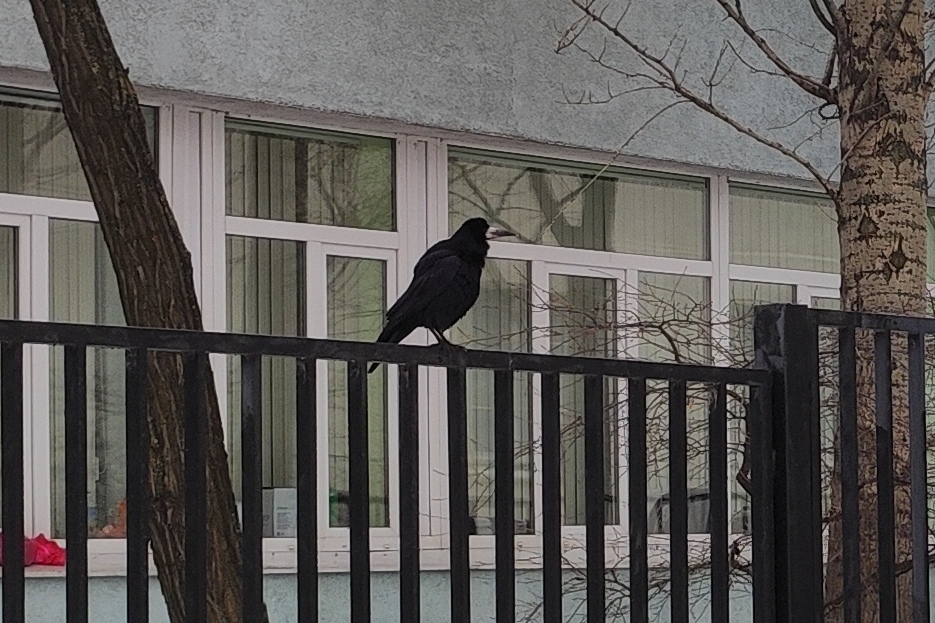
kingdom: Animalia
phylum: Chordata
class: Aves
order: Passeriformes
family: Corvidae
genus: Corvus
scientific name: Corvus frugilegus
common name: Rook
